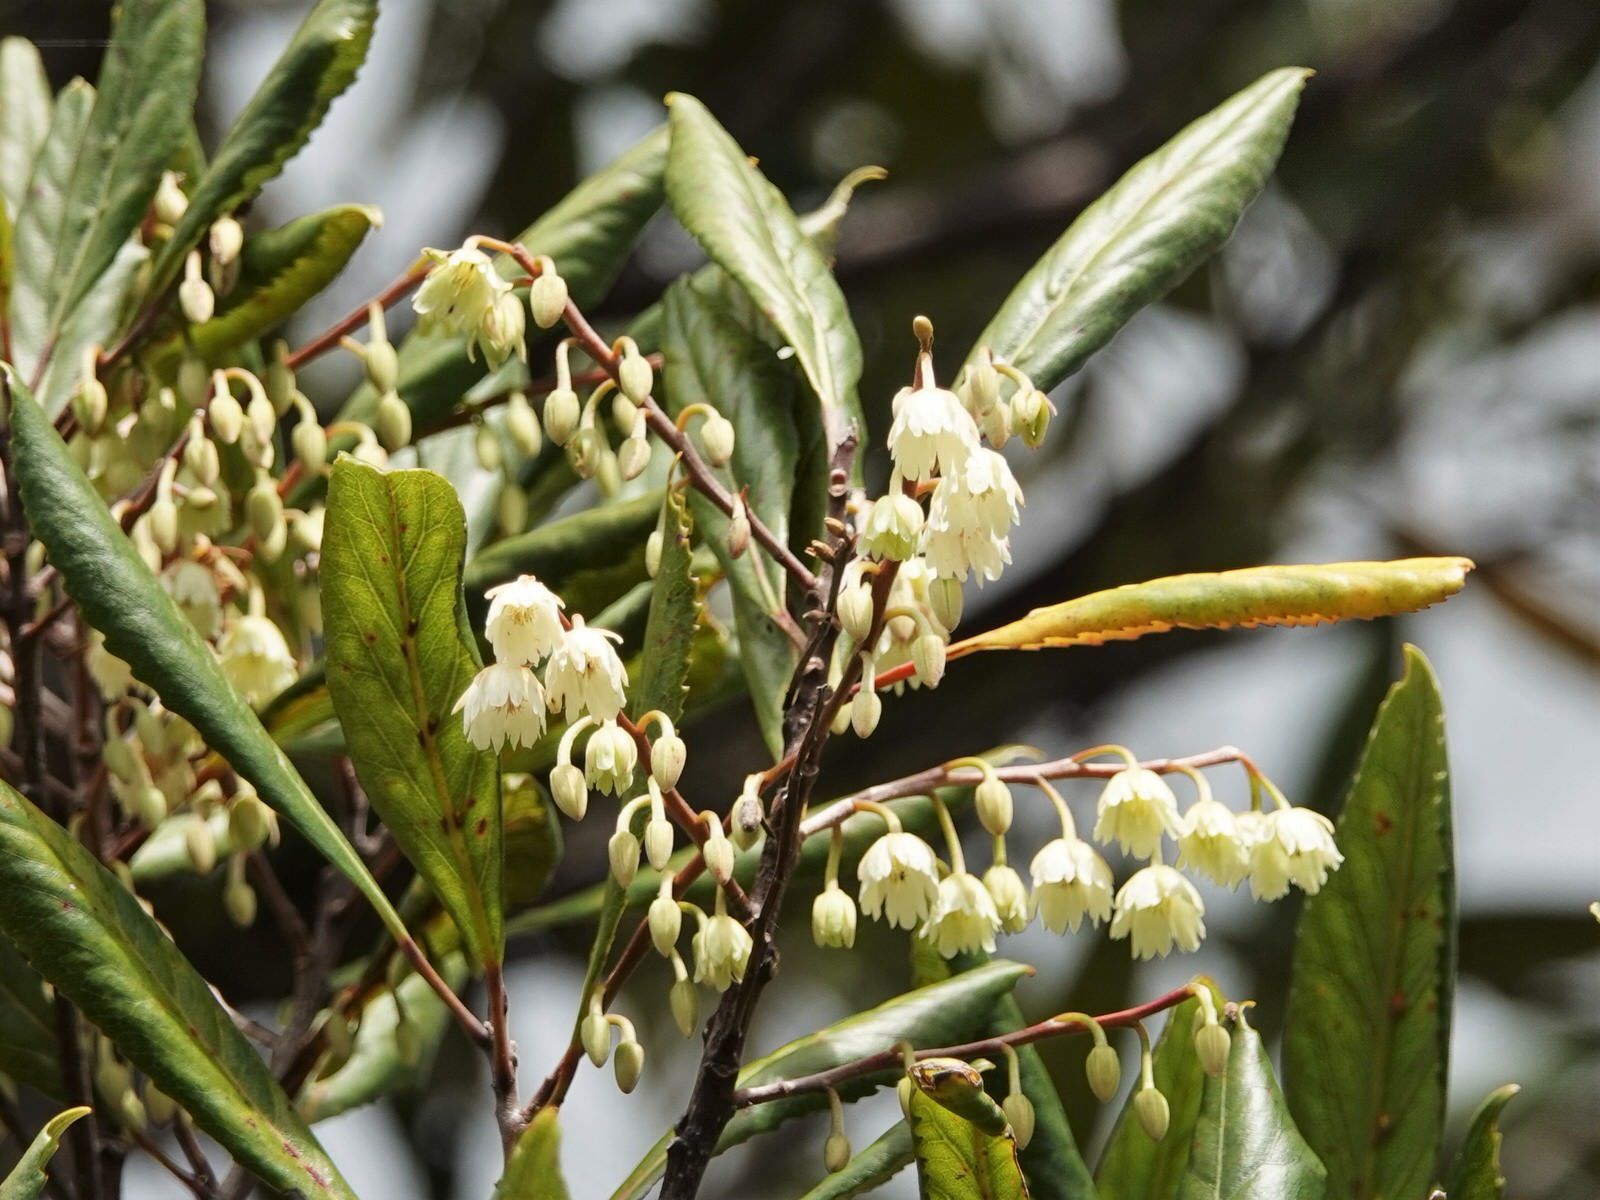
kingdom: Plantae
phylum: Tracheophyta
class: Magnoliopsida
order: Oxalidales
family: Elaeocarpaceae
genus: Elaeocarpus
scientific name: Elaeocarpus dentatus
